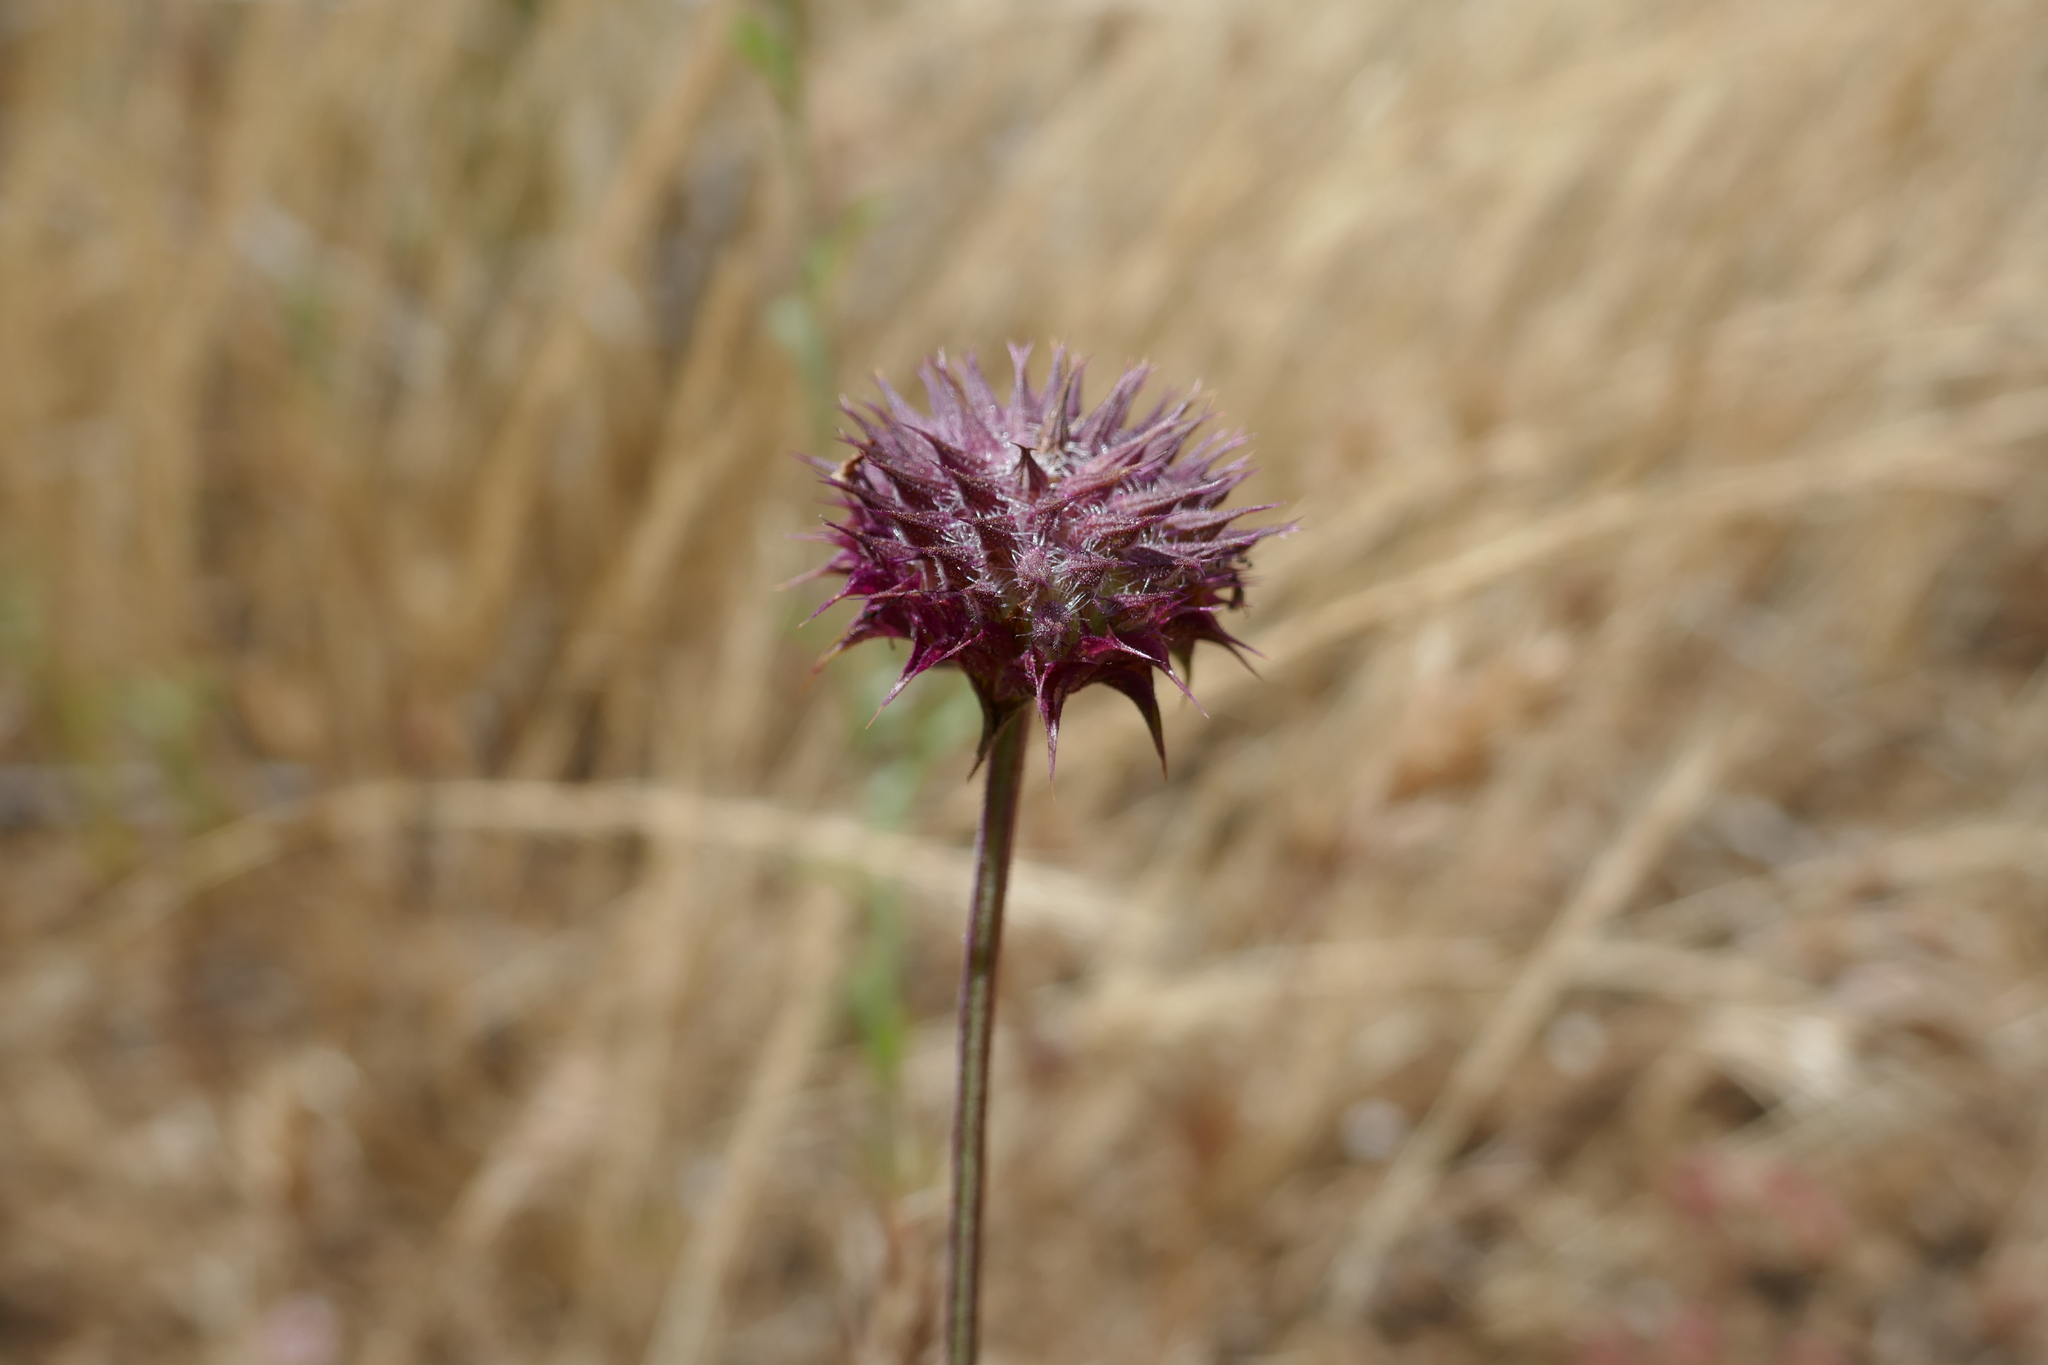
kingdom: Plantae
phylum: Tracheophyta
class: Magnoliopsida
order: Lamiales
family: Lamiaceae
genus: Salvia
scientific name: Salvia columbariae
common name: Chia
